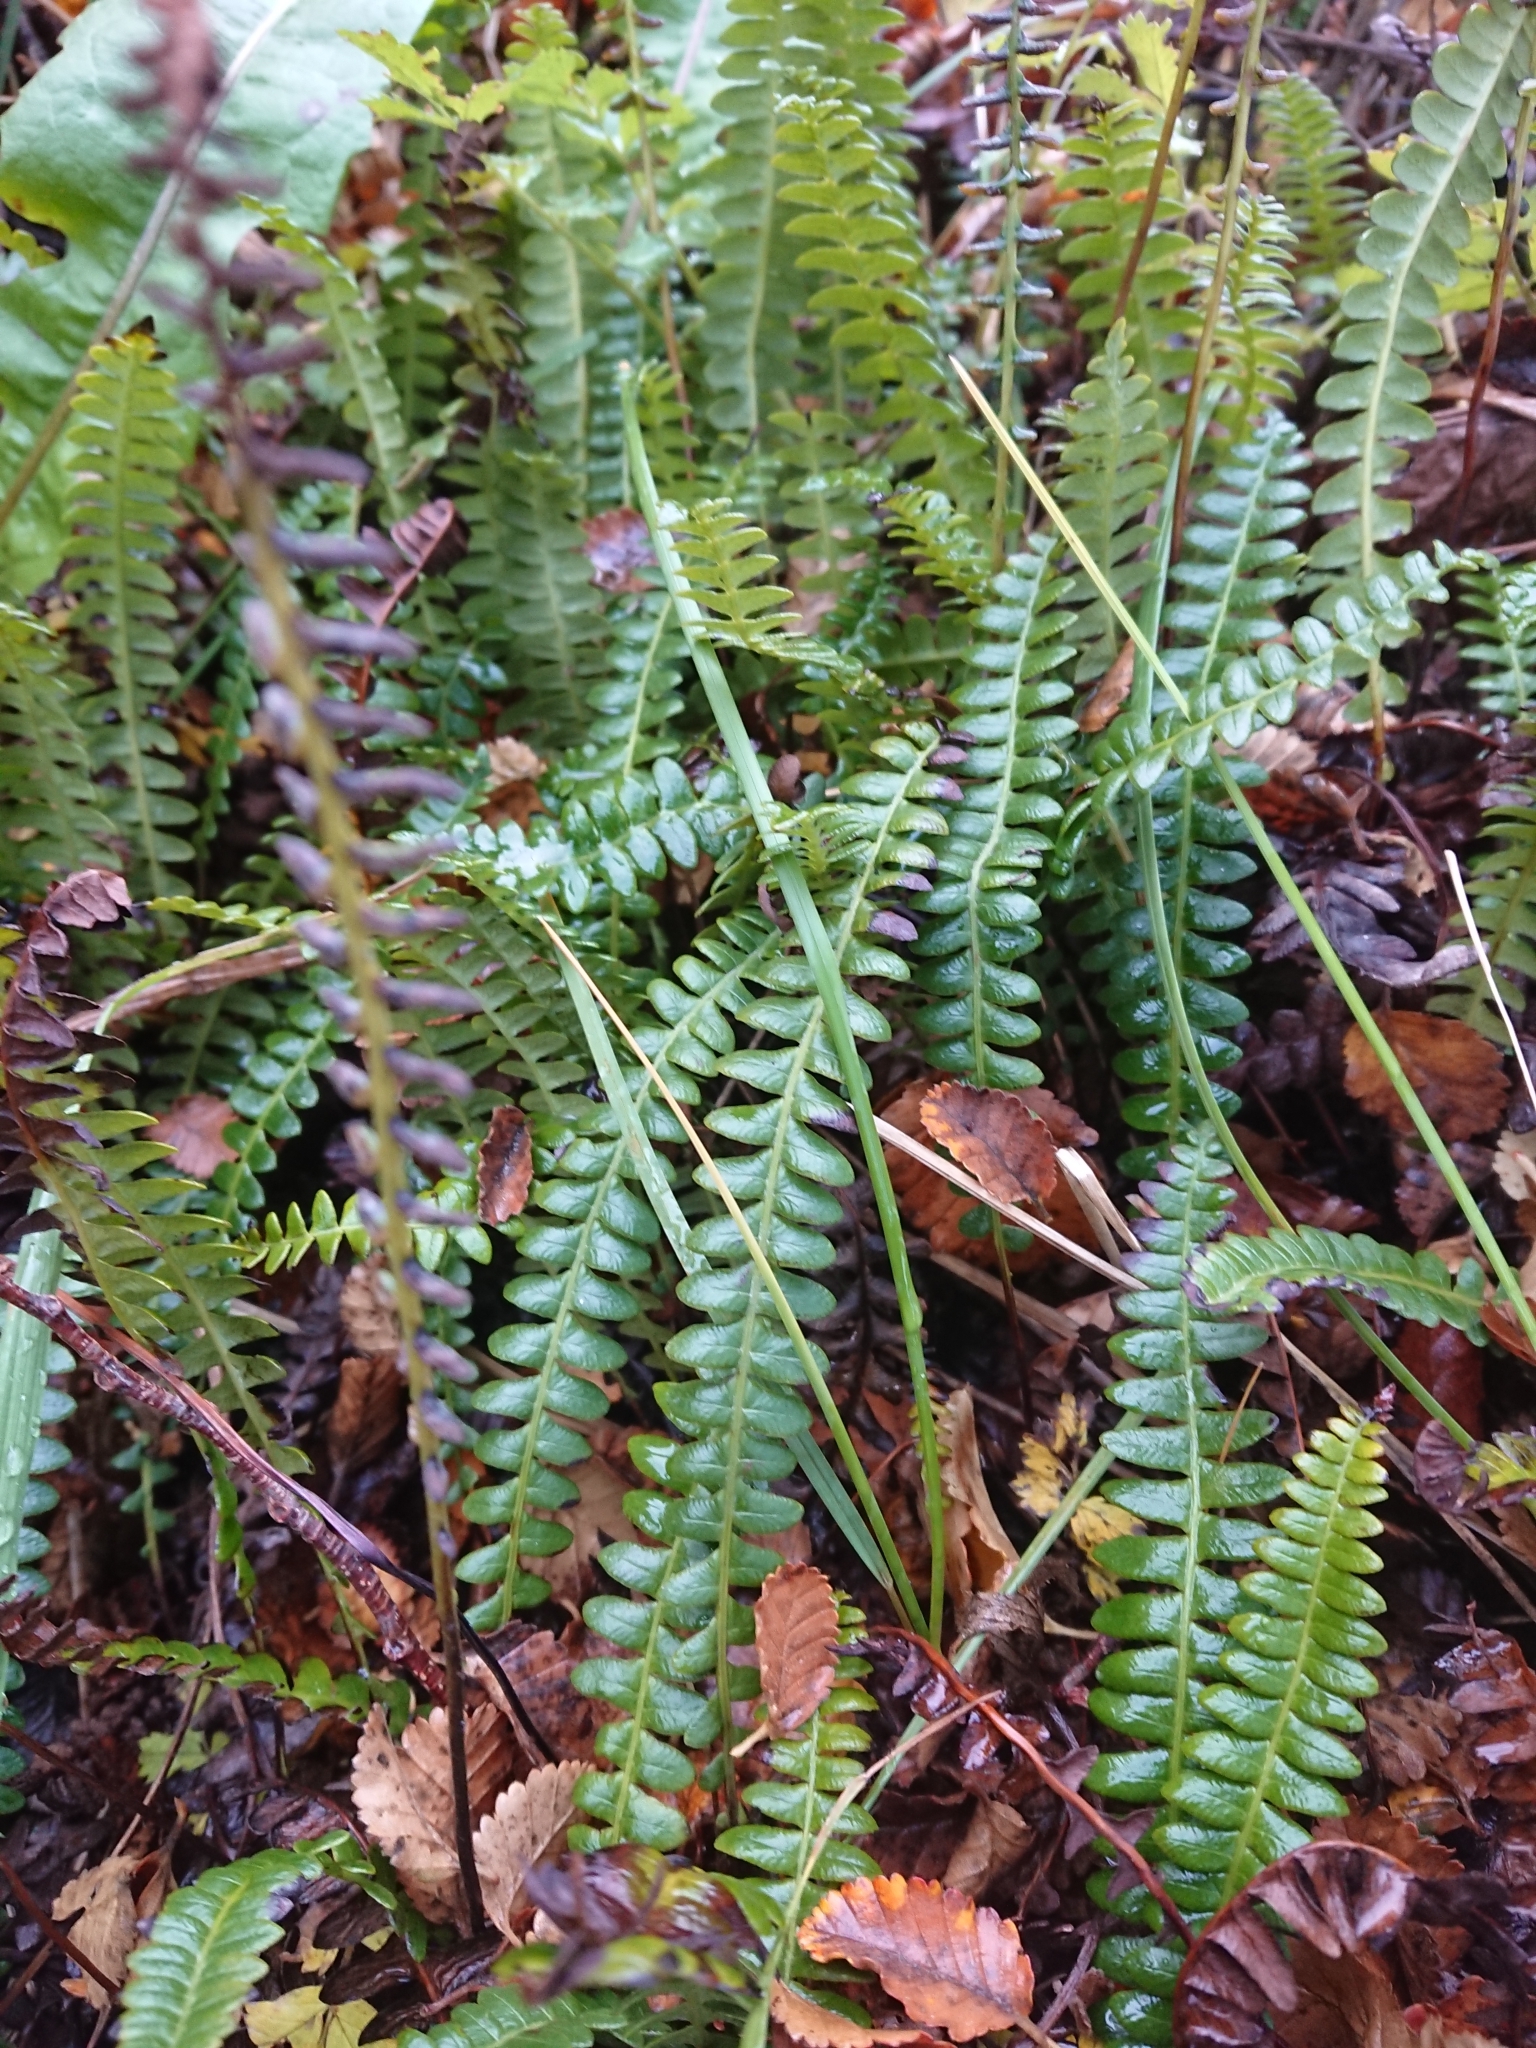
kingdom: Plantae
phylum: Tracheophyta
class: Magnoliopsida
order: Apiales
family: Apiaceae
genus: Osmorhiza
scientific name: Osmorhiza depauperata
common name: Blunt sweet cicely
